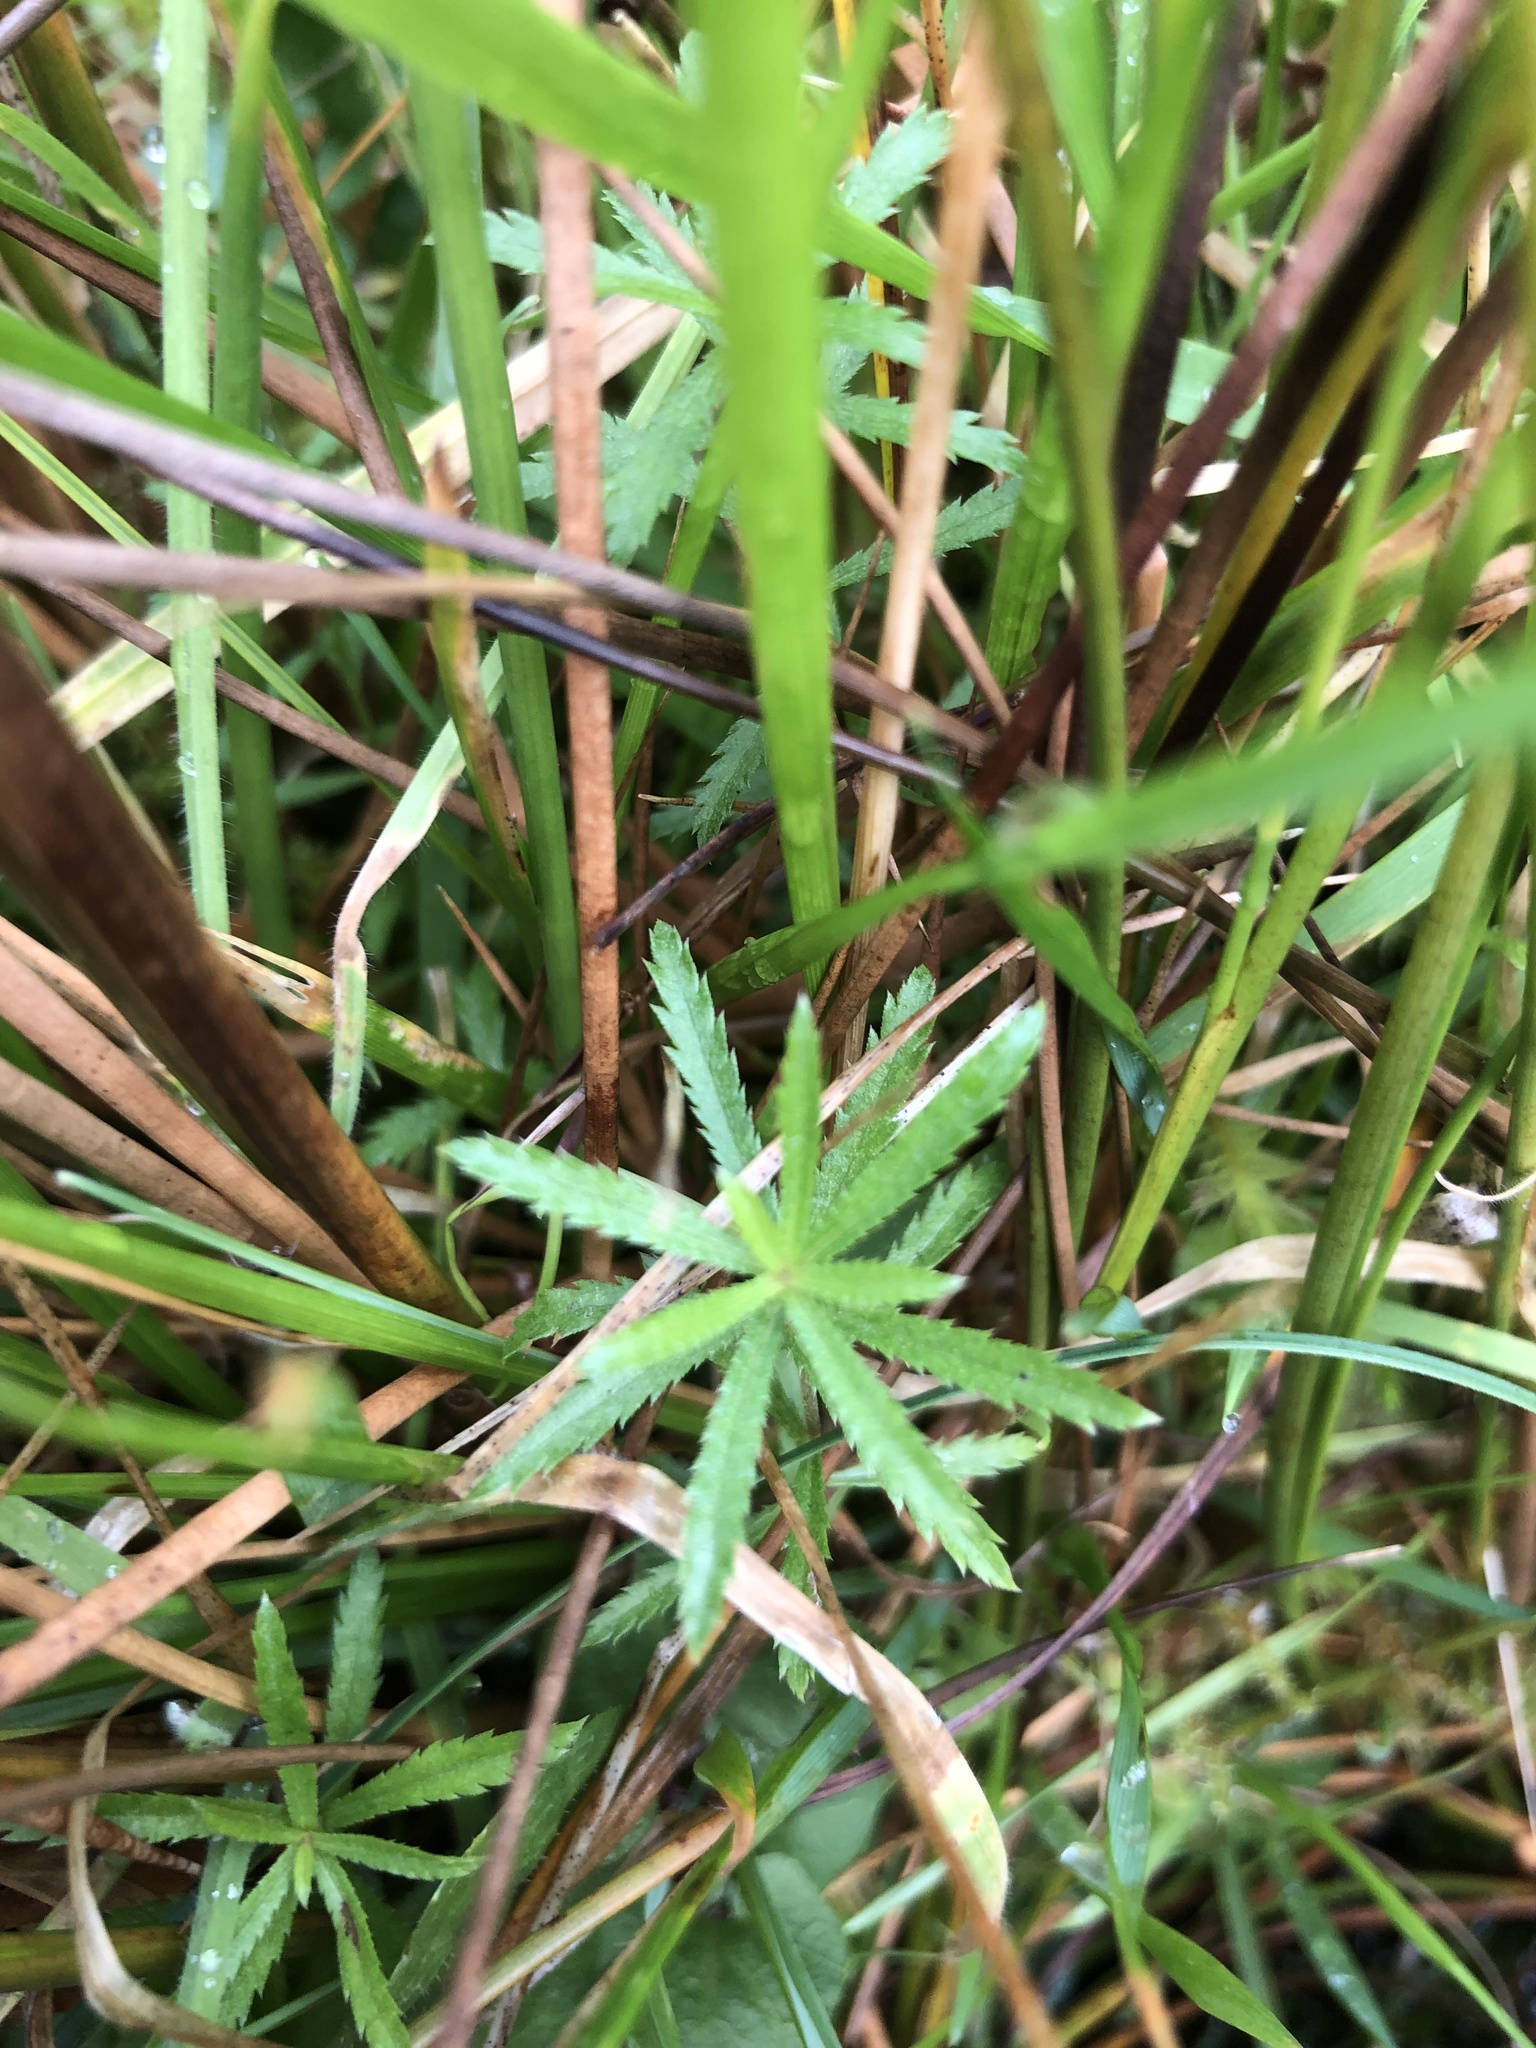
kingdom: Plantae
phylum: Tracheophyta
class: Magnoliopsida
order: Asterales
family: Asteraceae
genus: Achillea
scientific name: Achillea ptarmica
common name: Sneezeweed
